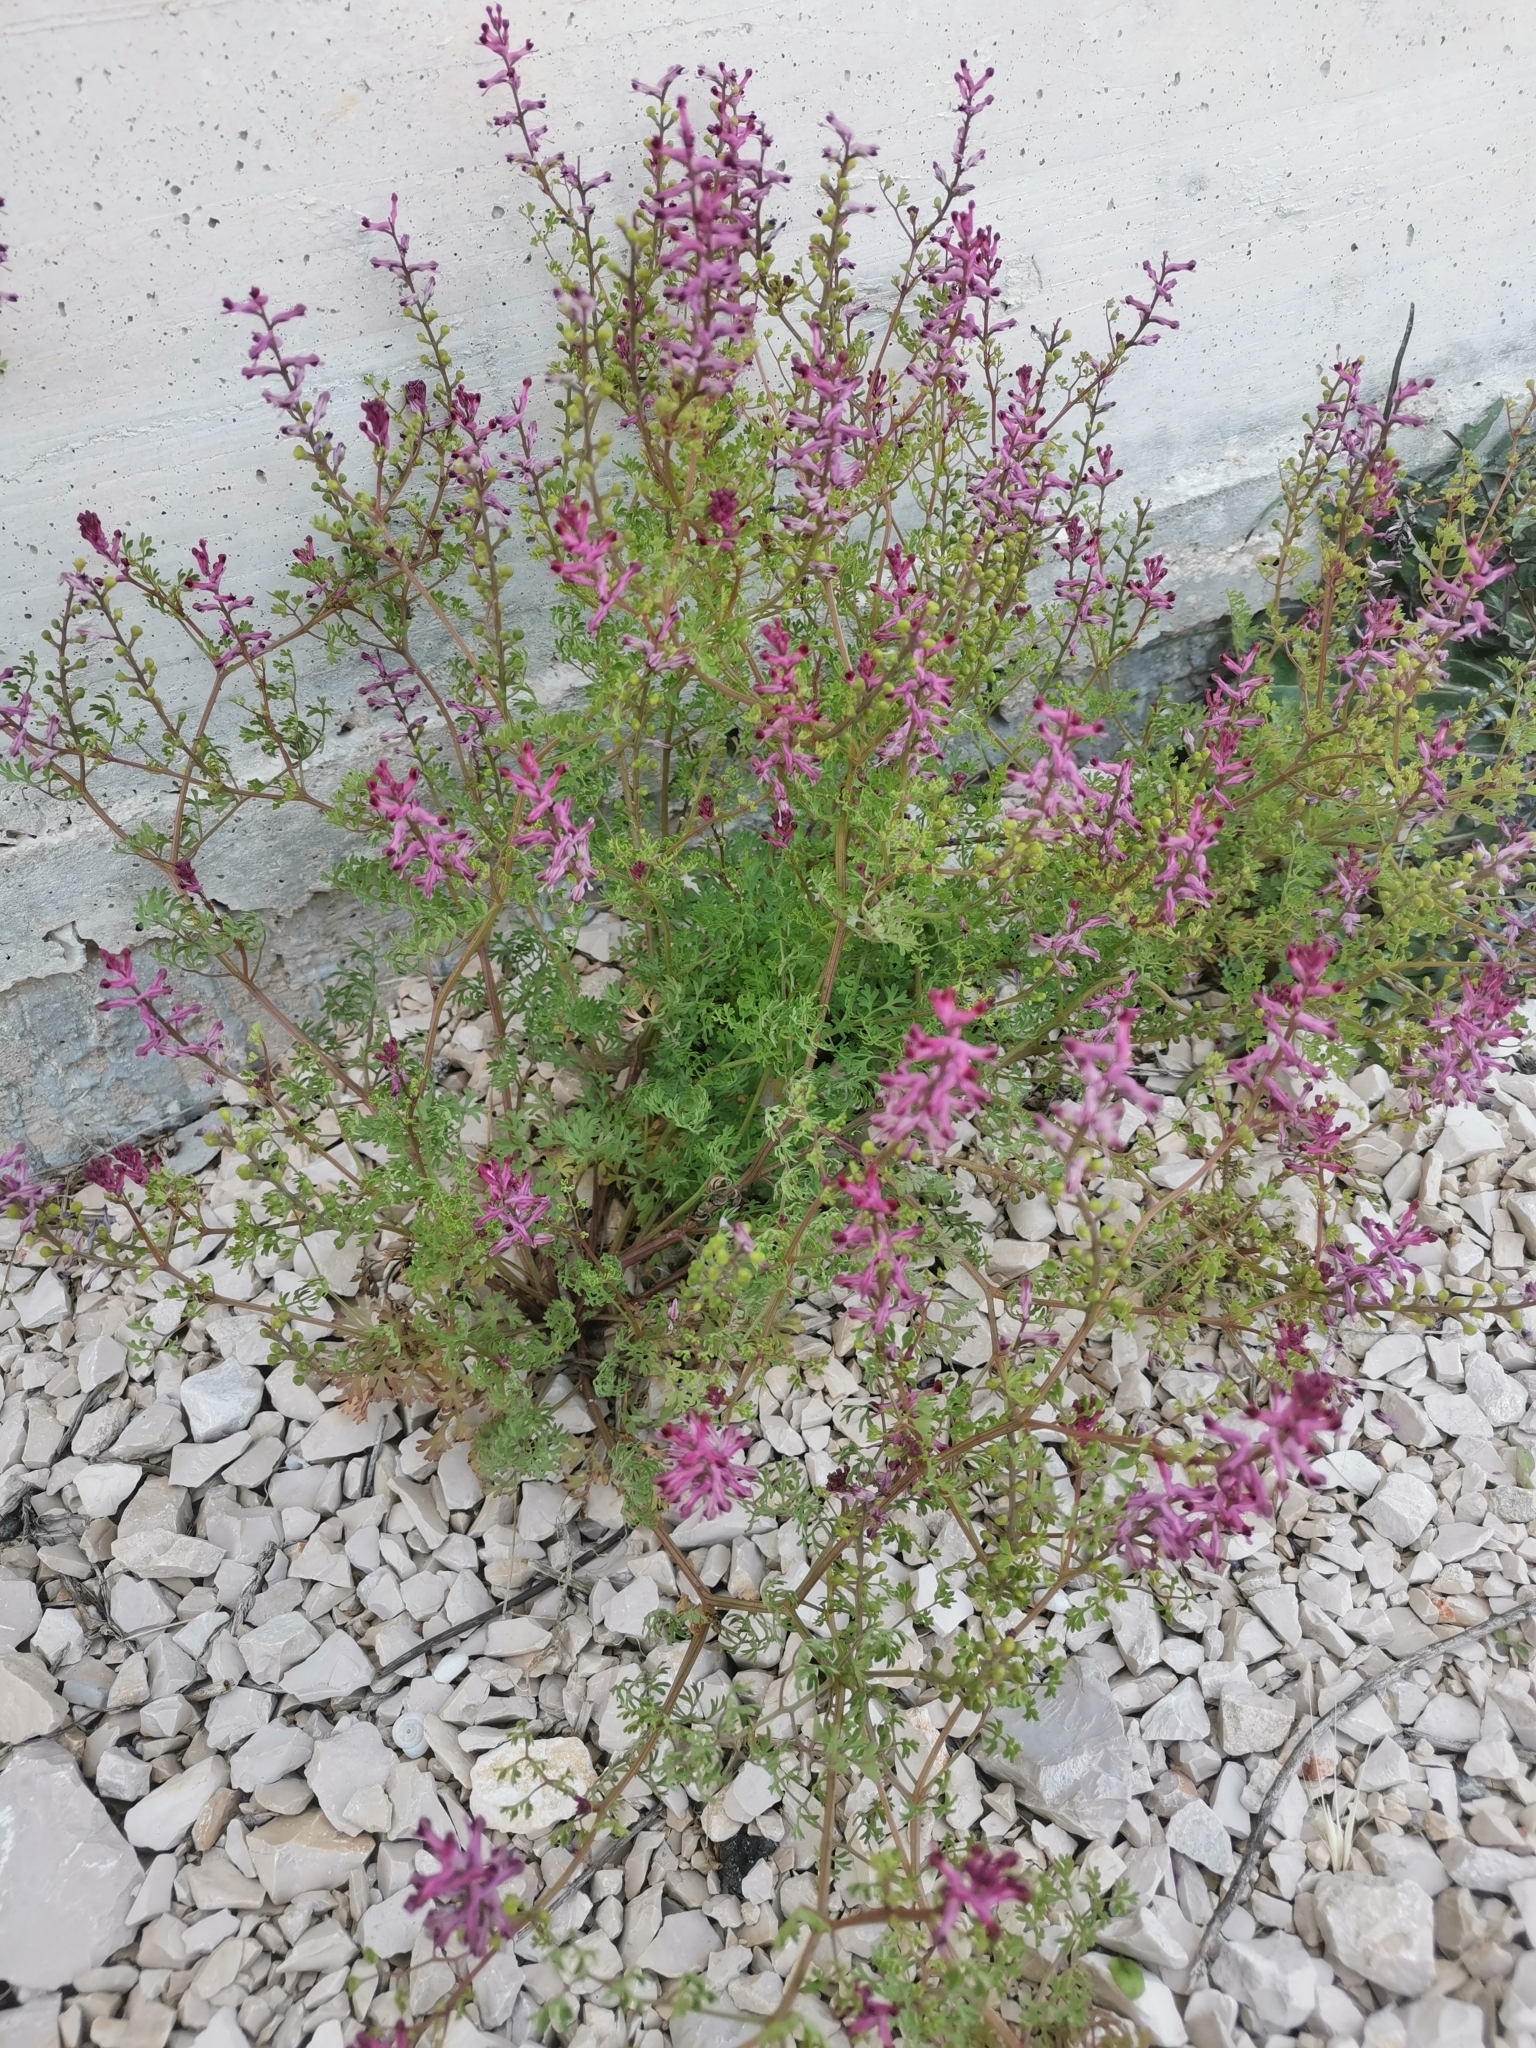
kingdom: Plantae
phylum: Tracheophyta
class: Magnoliopsida
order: Ranunculales
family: Papaveraceae
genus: Fumaria
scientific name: Fumaria officinalis
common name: Common fumitory
